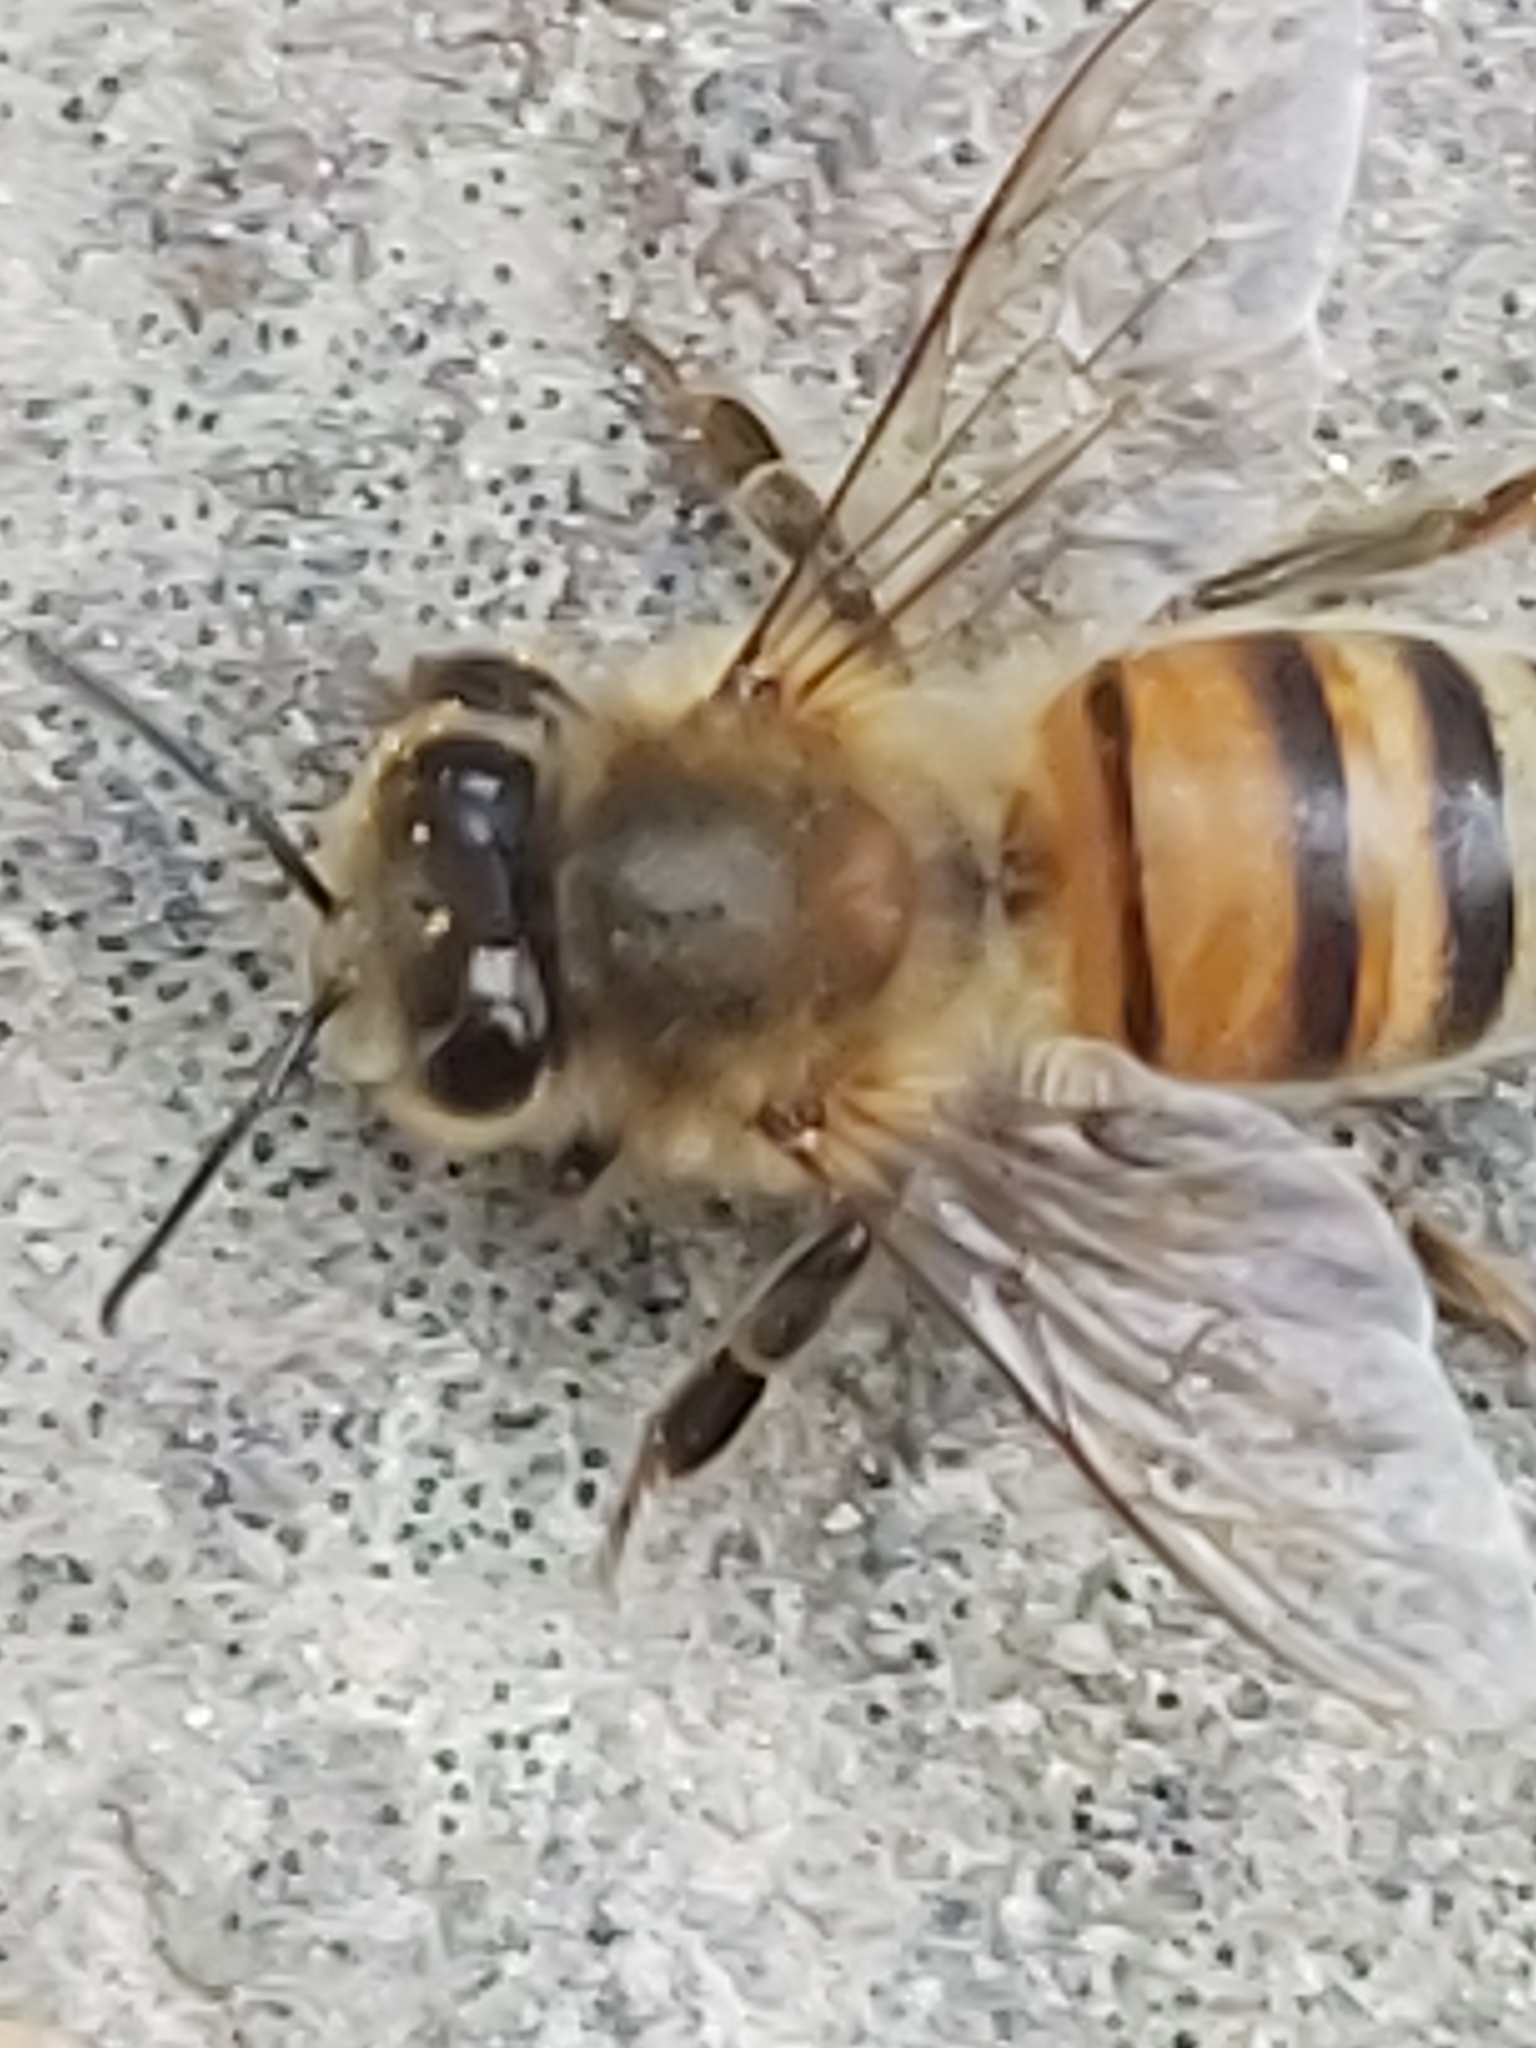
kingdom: Animalia
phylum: Arthropoda
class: Insecta
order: Hymenoptera
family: Apidae
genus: Apis
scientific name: Apis mellifera
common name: Honey bee
